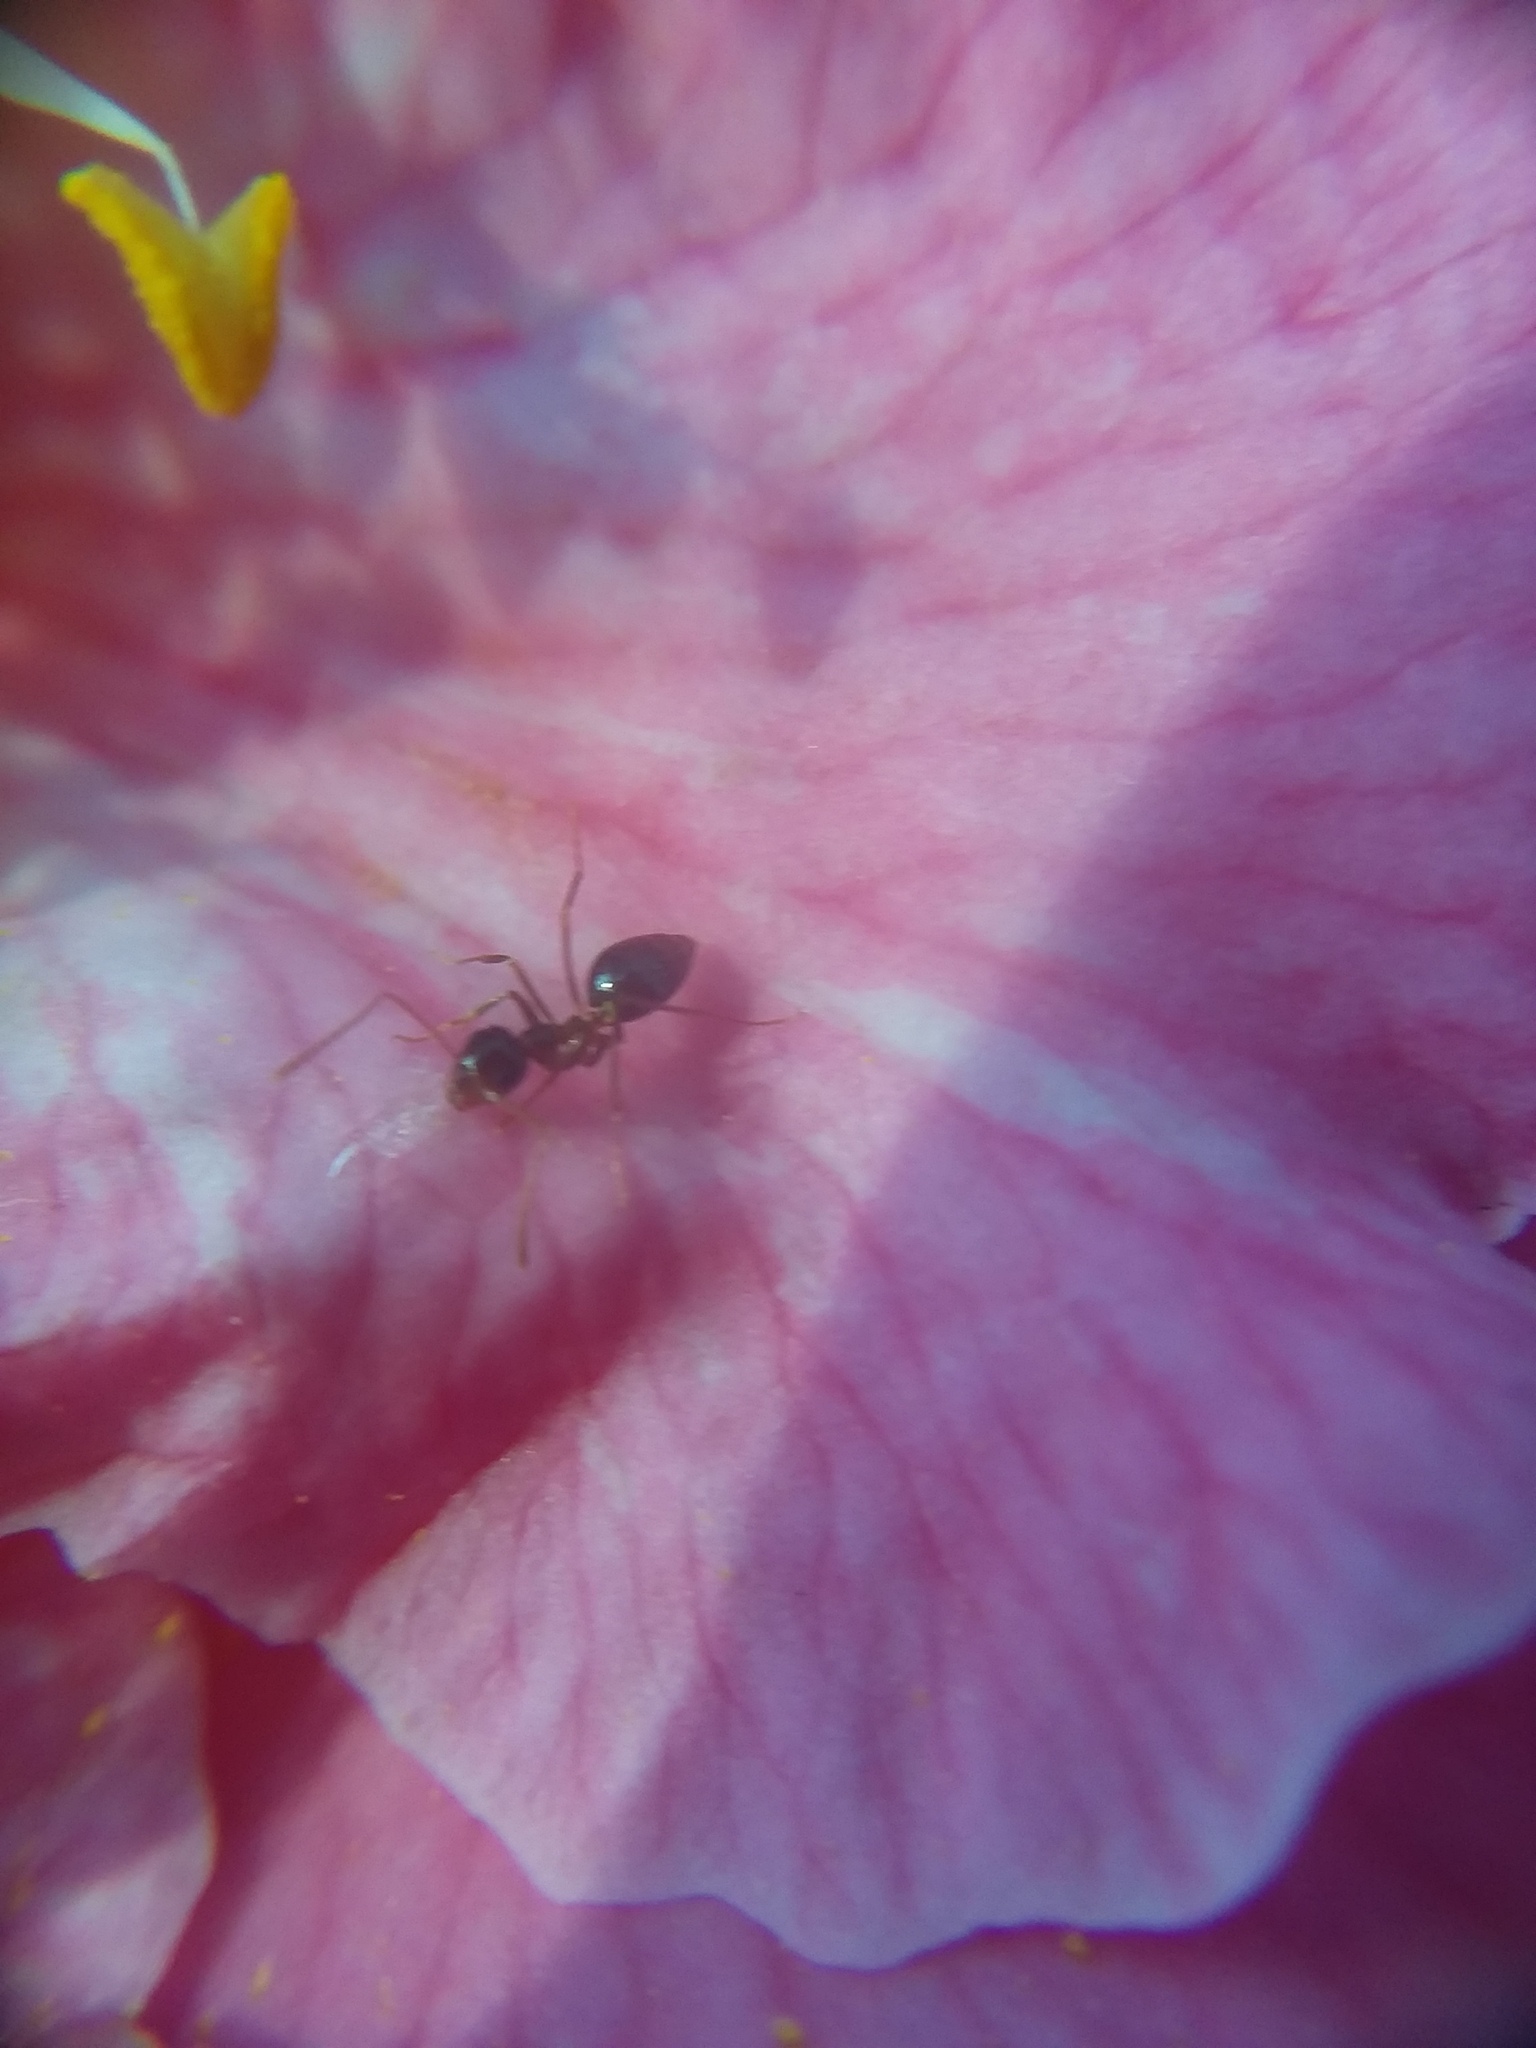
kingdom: Animalia
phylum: Arthropoda
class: Insecta
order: Hymenoptera
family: Formicidae
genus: Prenolepis
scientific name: Prenolepis imparis
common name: Small honey ant
